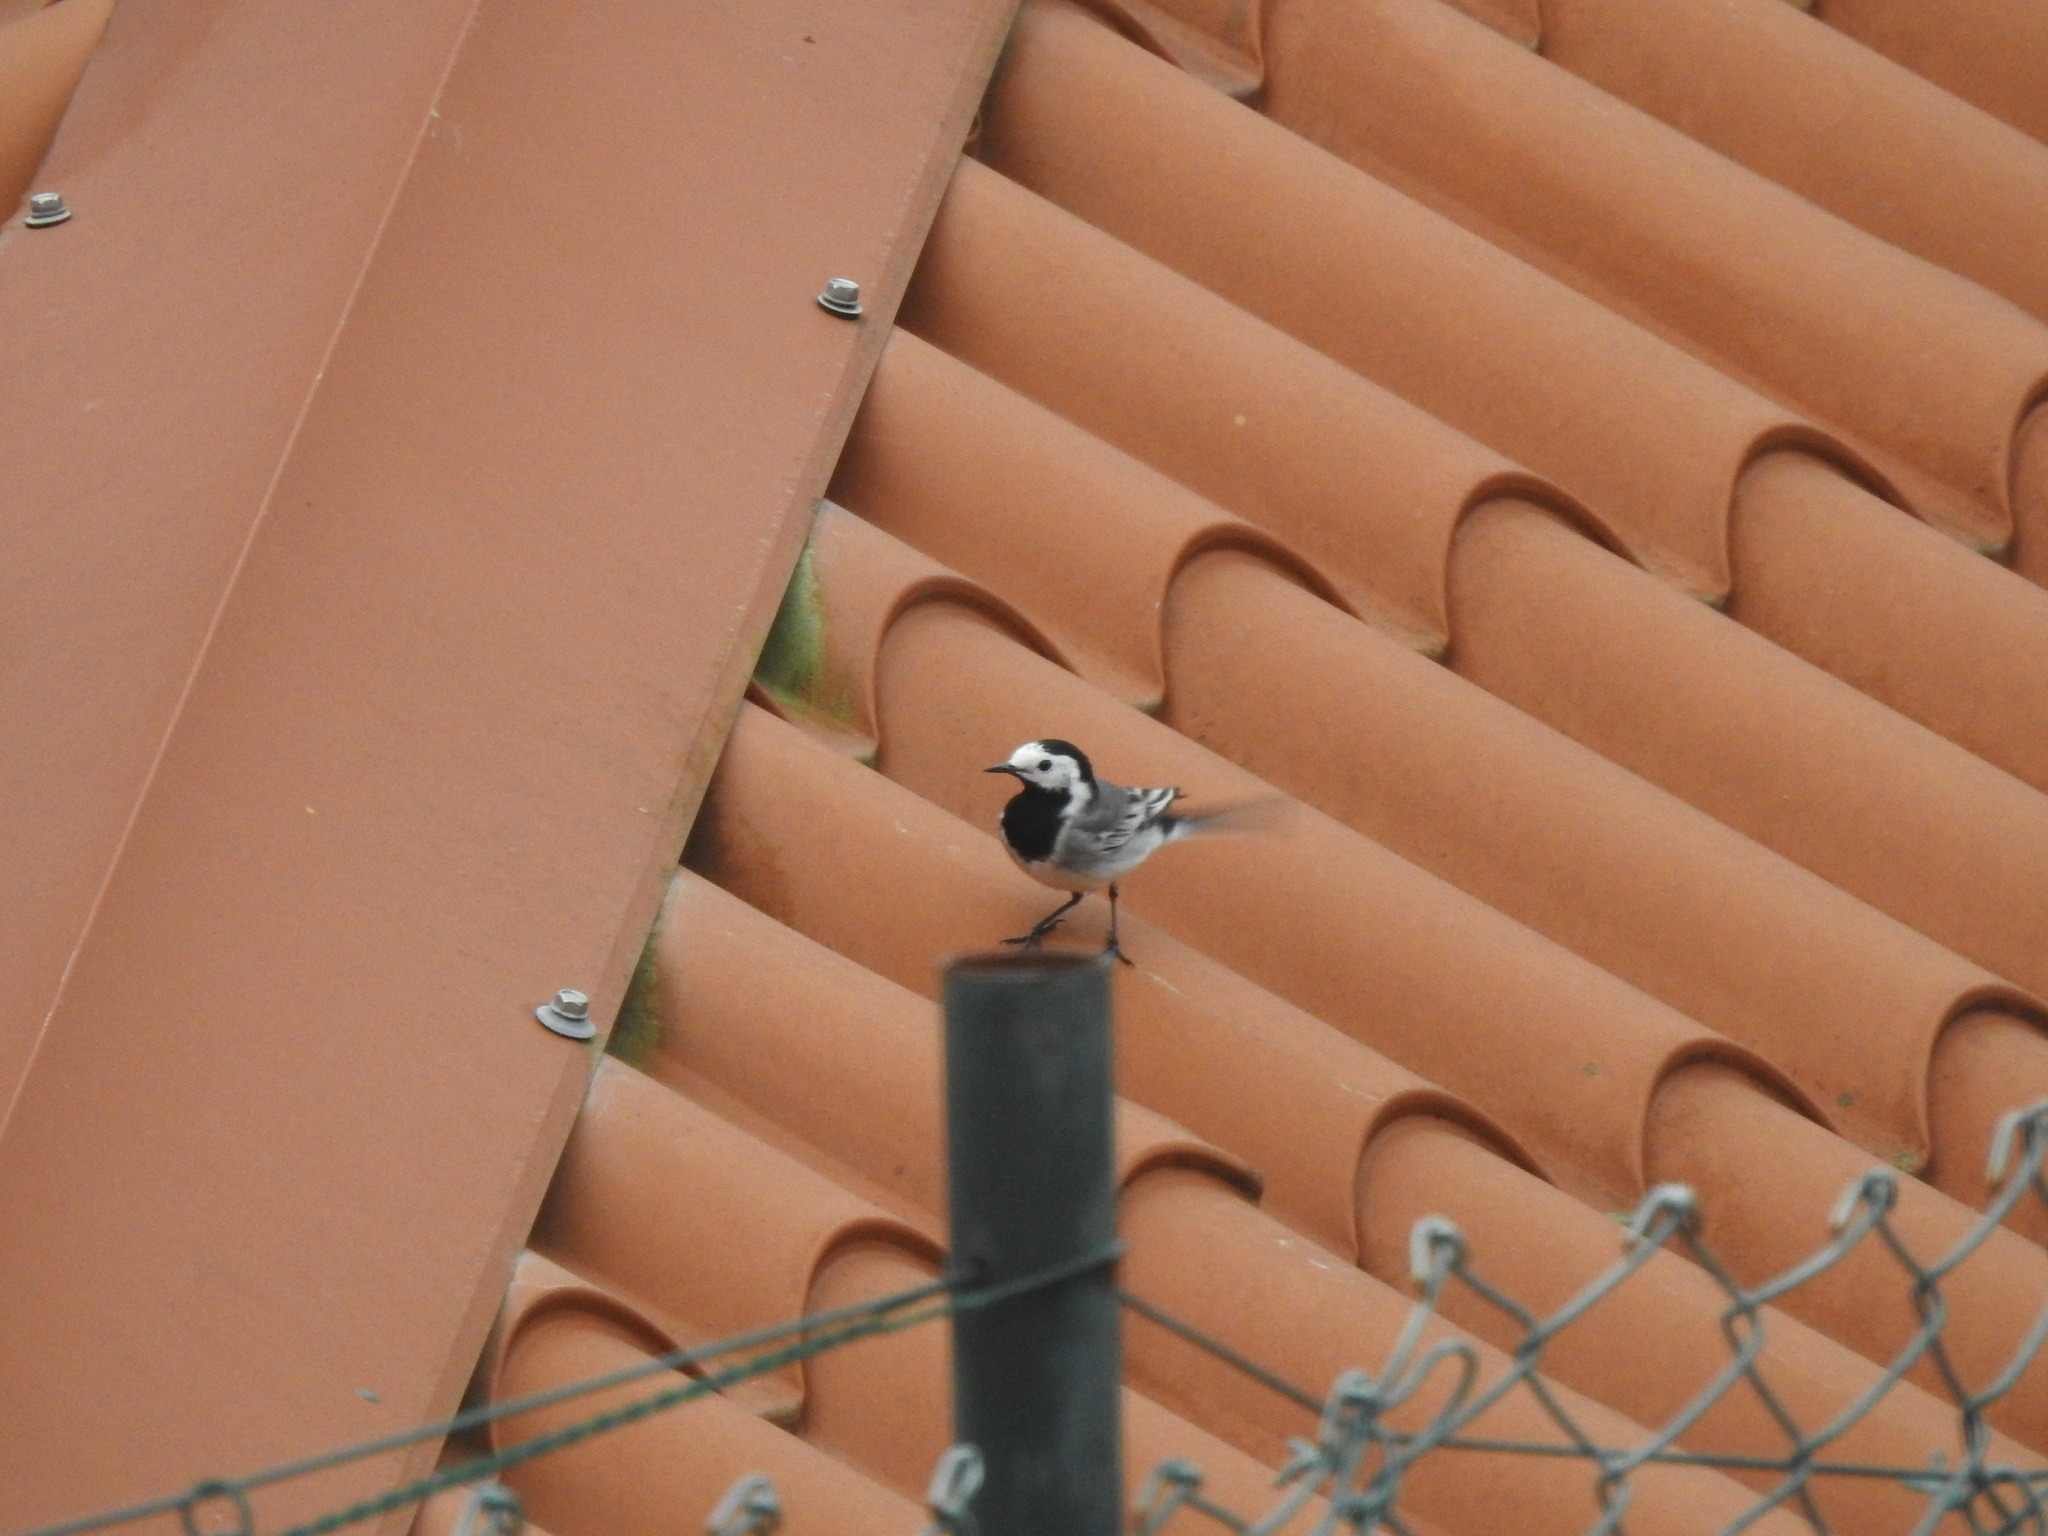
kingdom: Animalia
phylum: Chordata
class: Aves
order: Passeriformes
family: Motacillidae
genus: Motacilla
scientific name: Motacilla alba
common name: White wagtail
